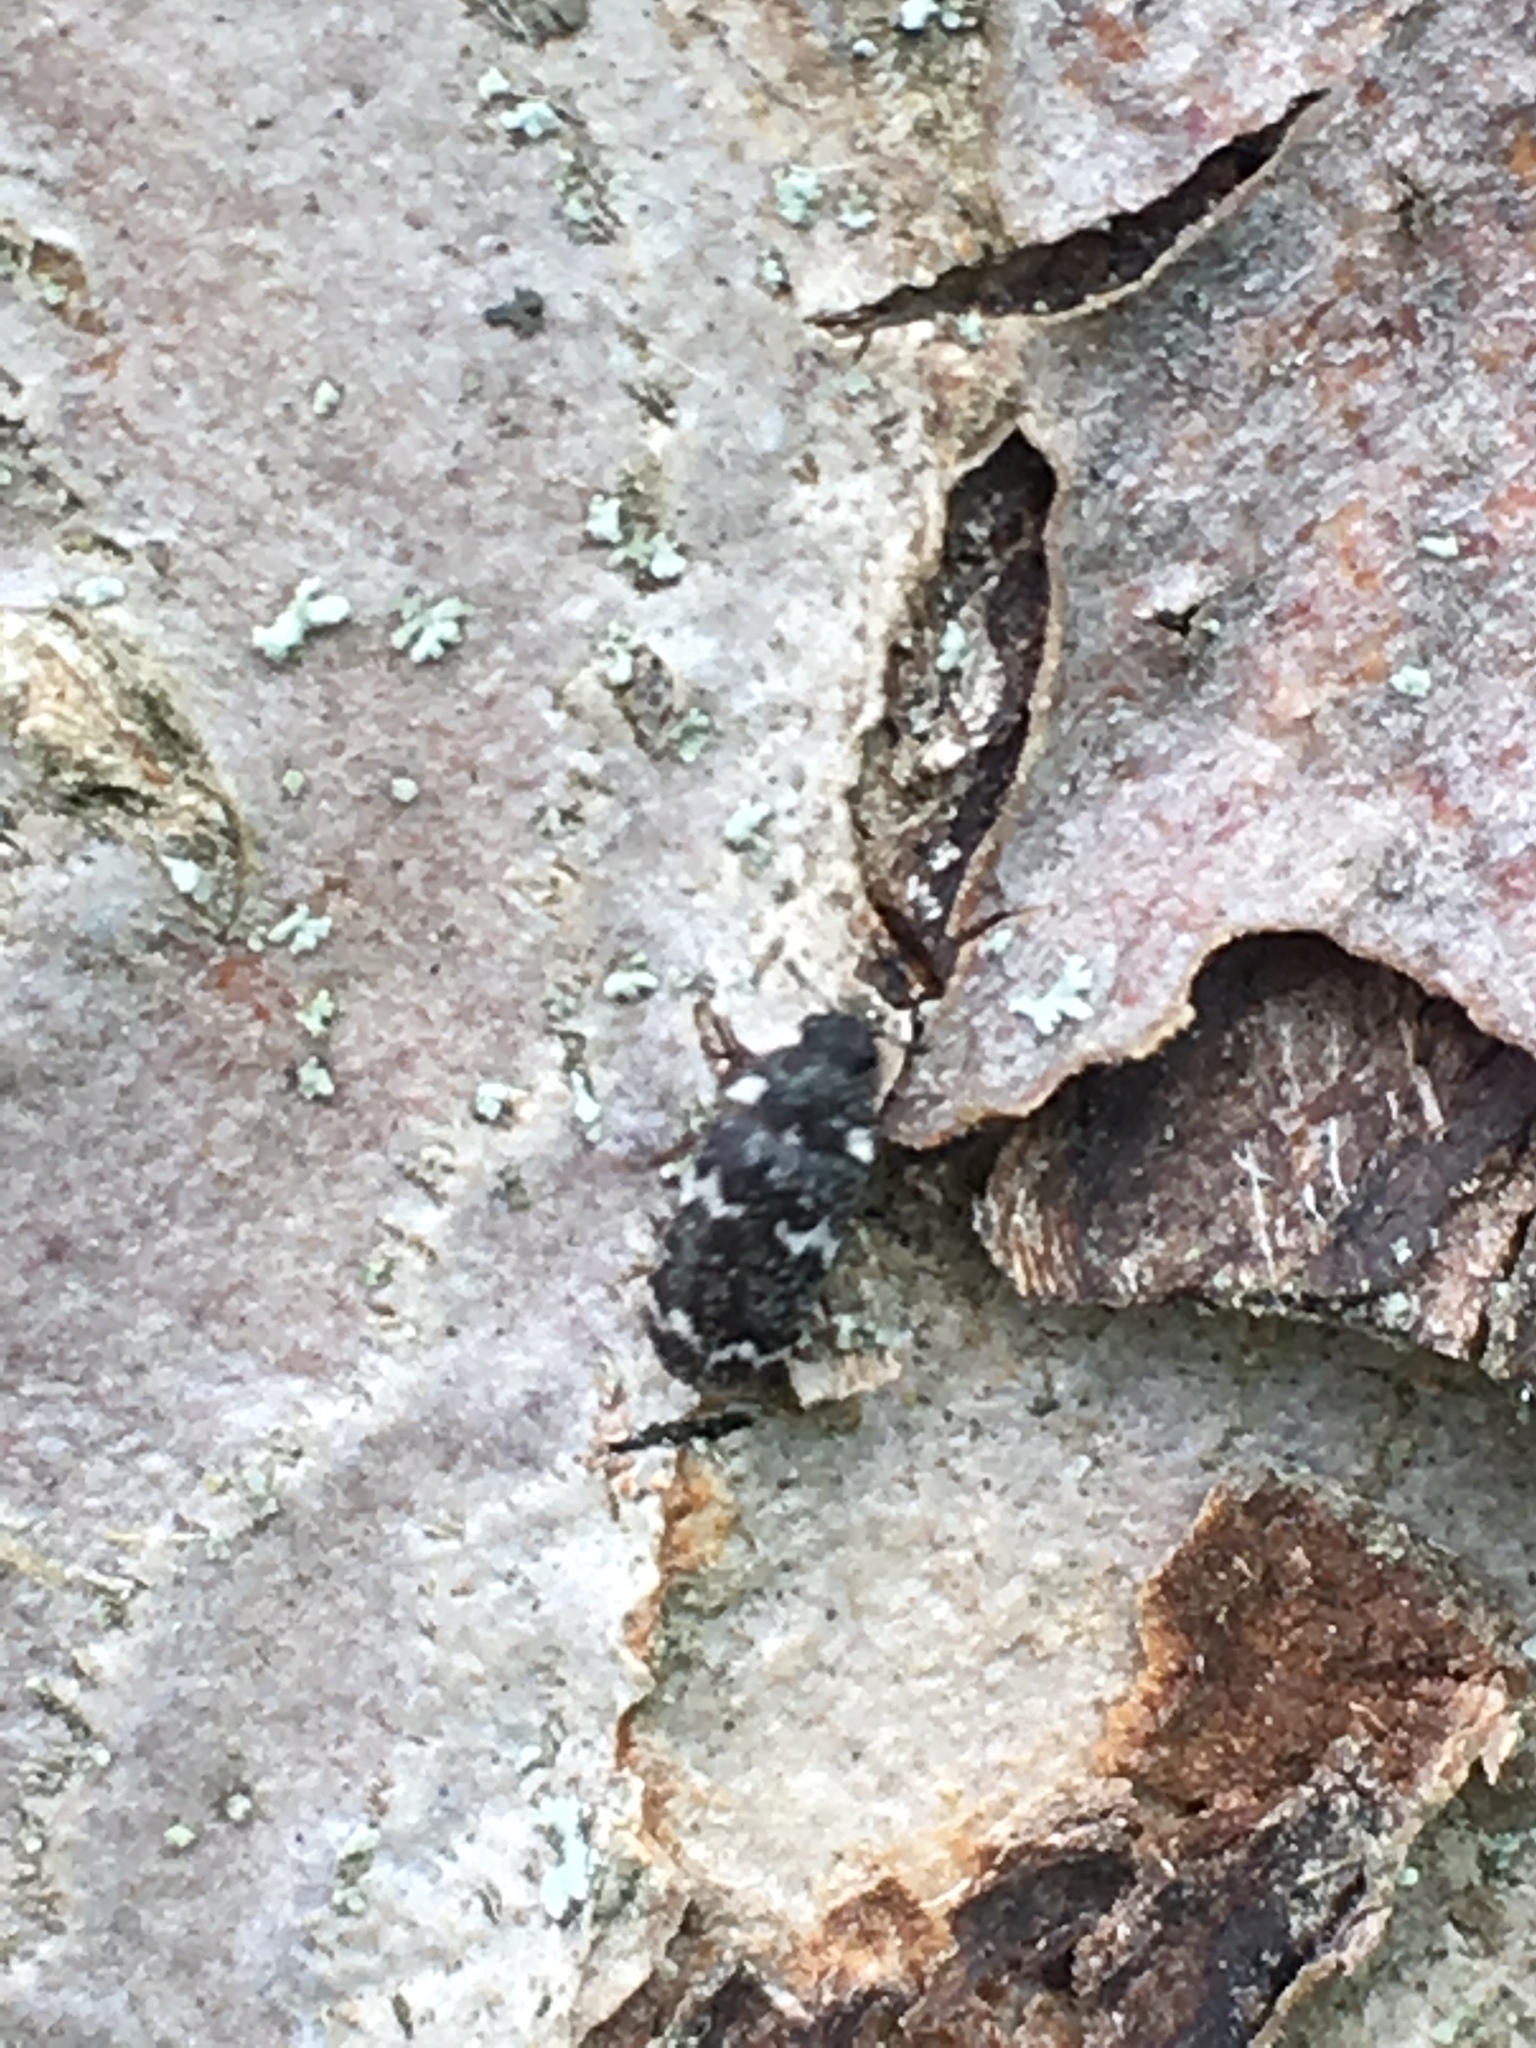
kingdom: Animalia
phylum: Arthropoda
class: Insecta
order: Coleoptera
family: Dermestidae
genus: Megatoma
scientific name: Megatoma undata
